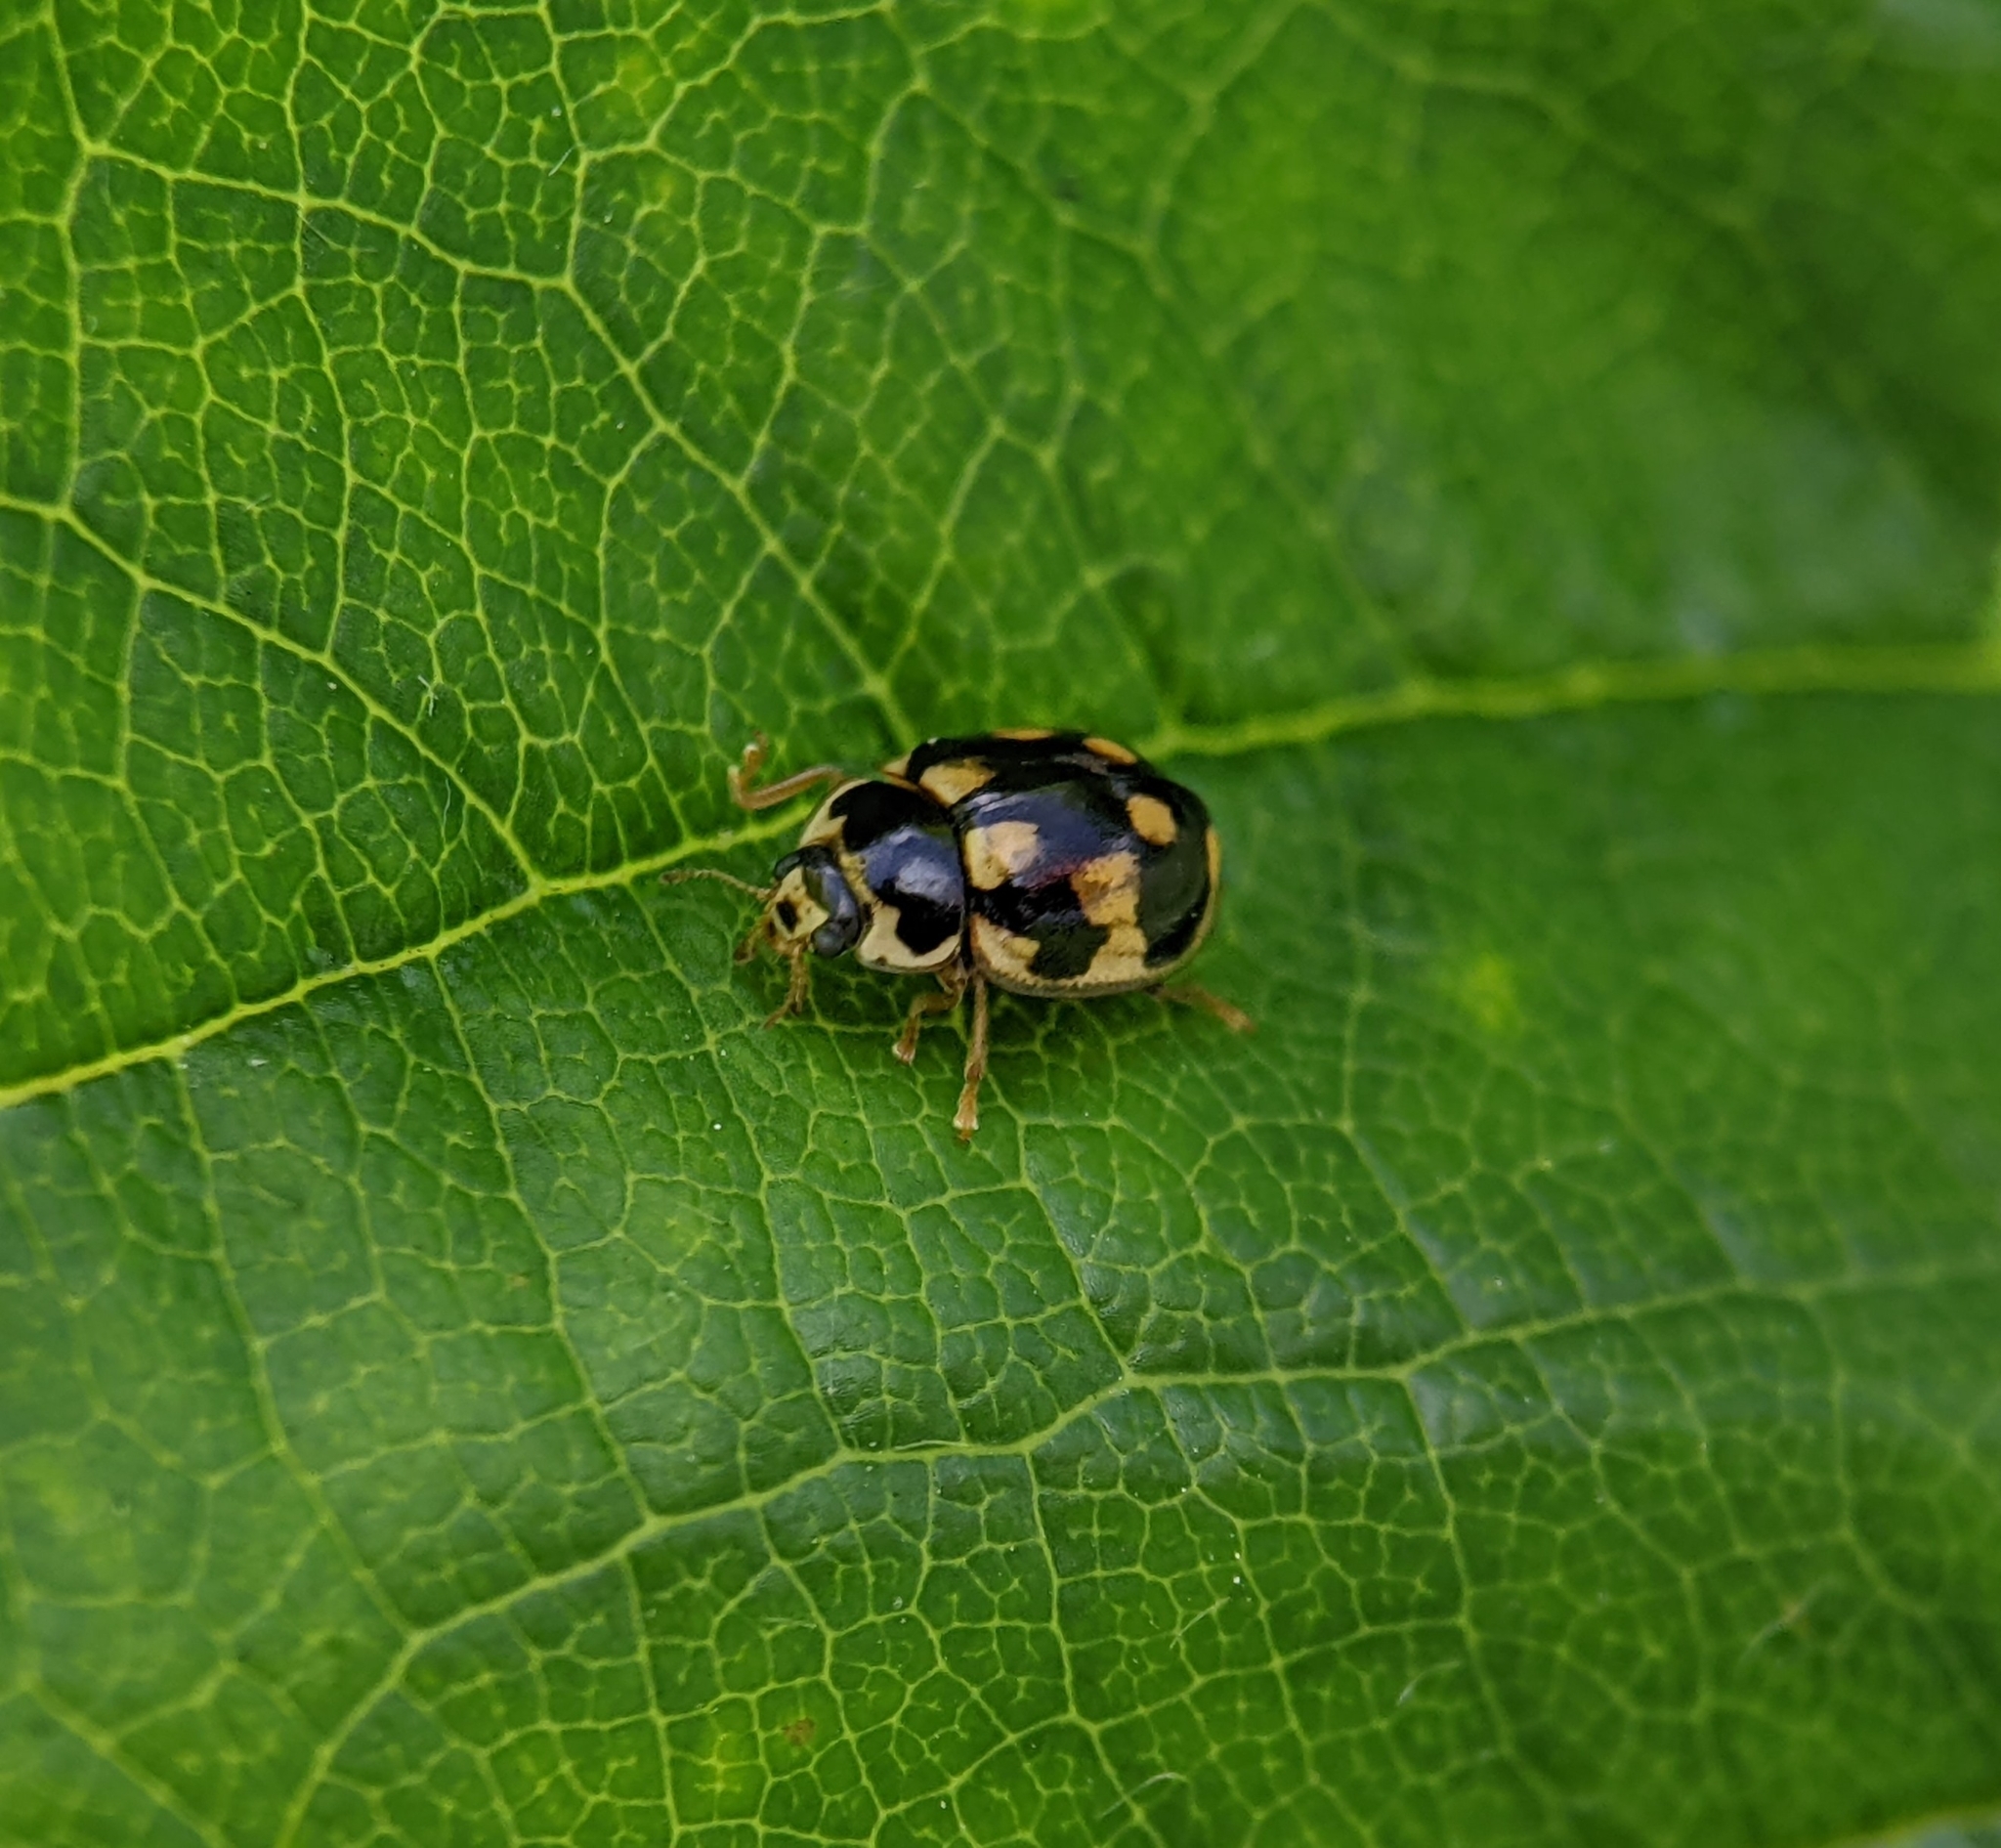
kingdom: Animalia
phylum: Arthropoda
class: Insecta
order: Coleoptera
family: Coccinellidae
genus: Propylaea
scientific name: Propylaea quatuordecimpunctata
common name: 14-spotted ladybird beetle
